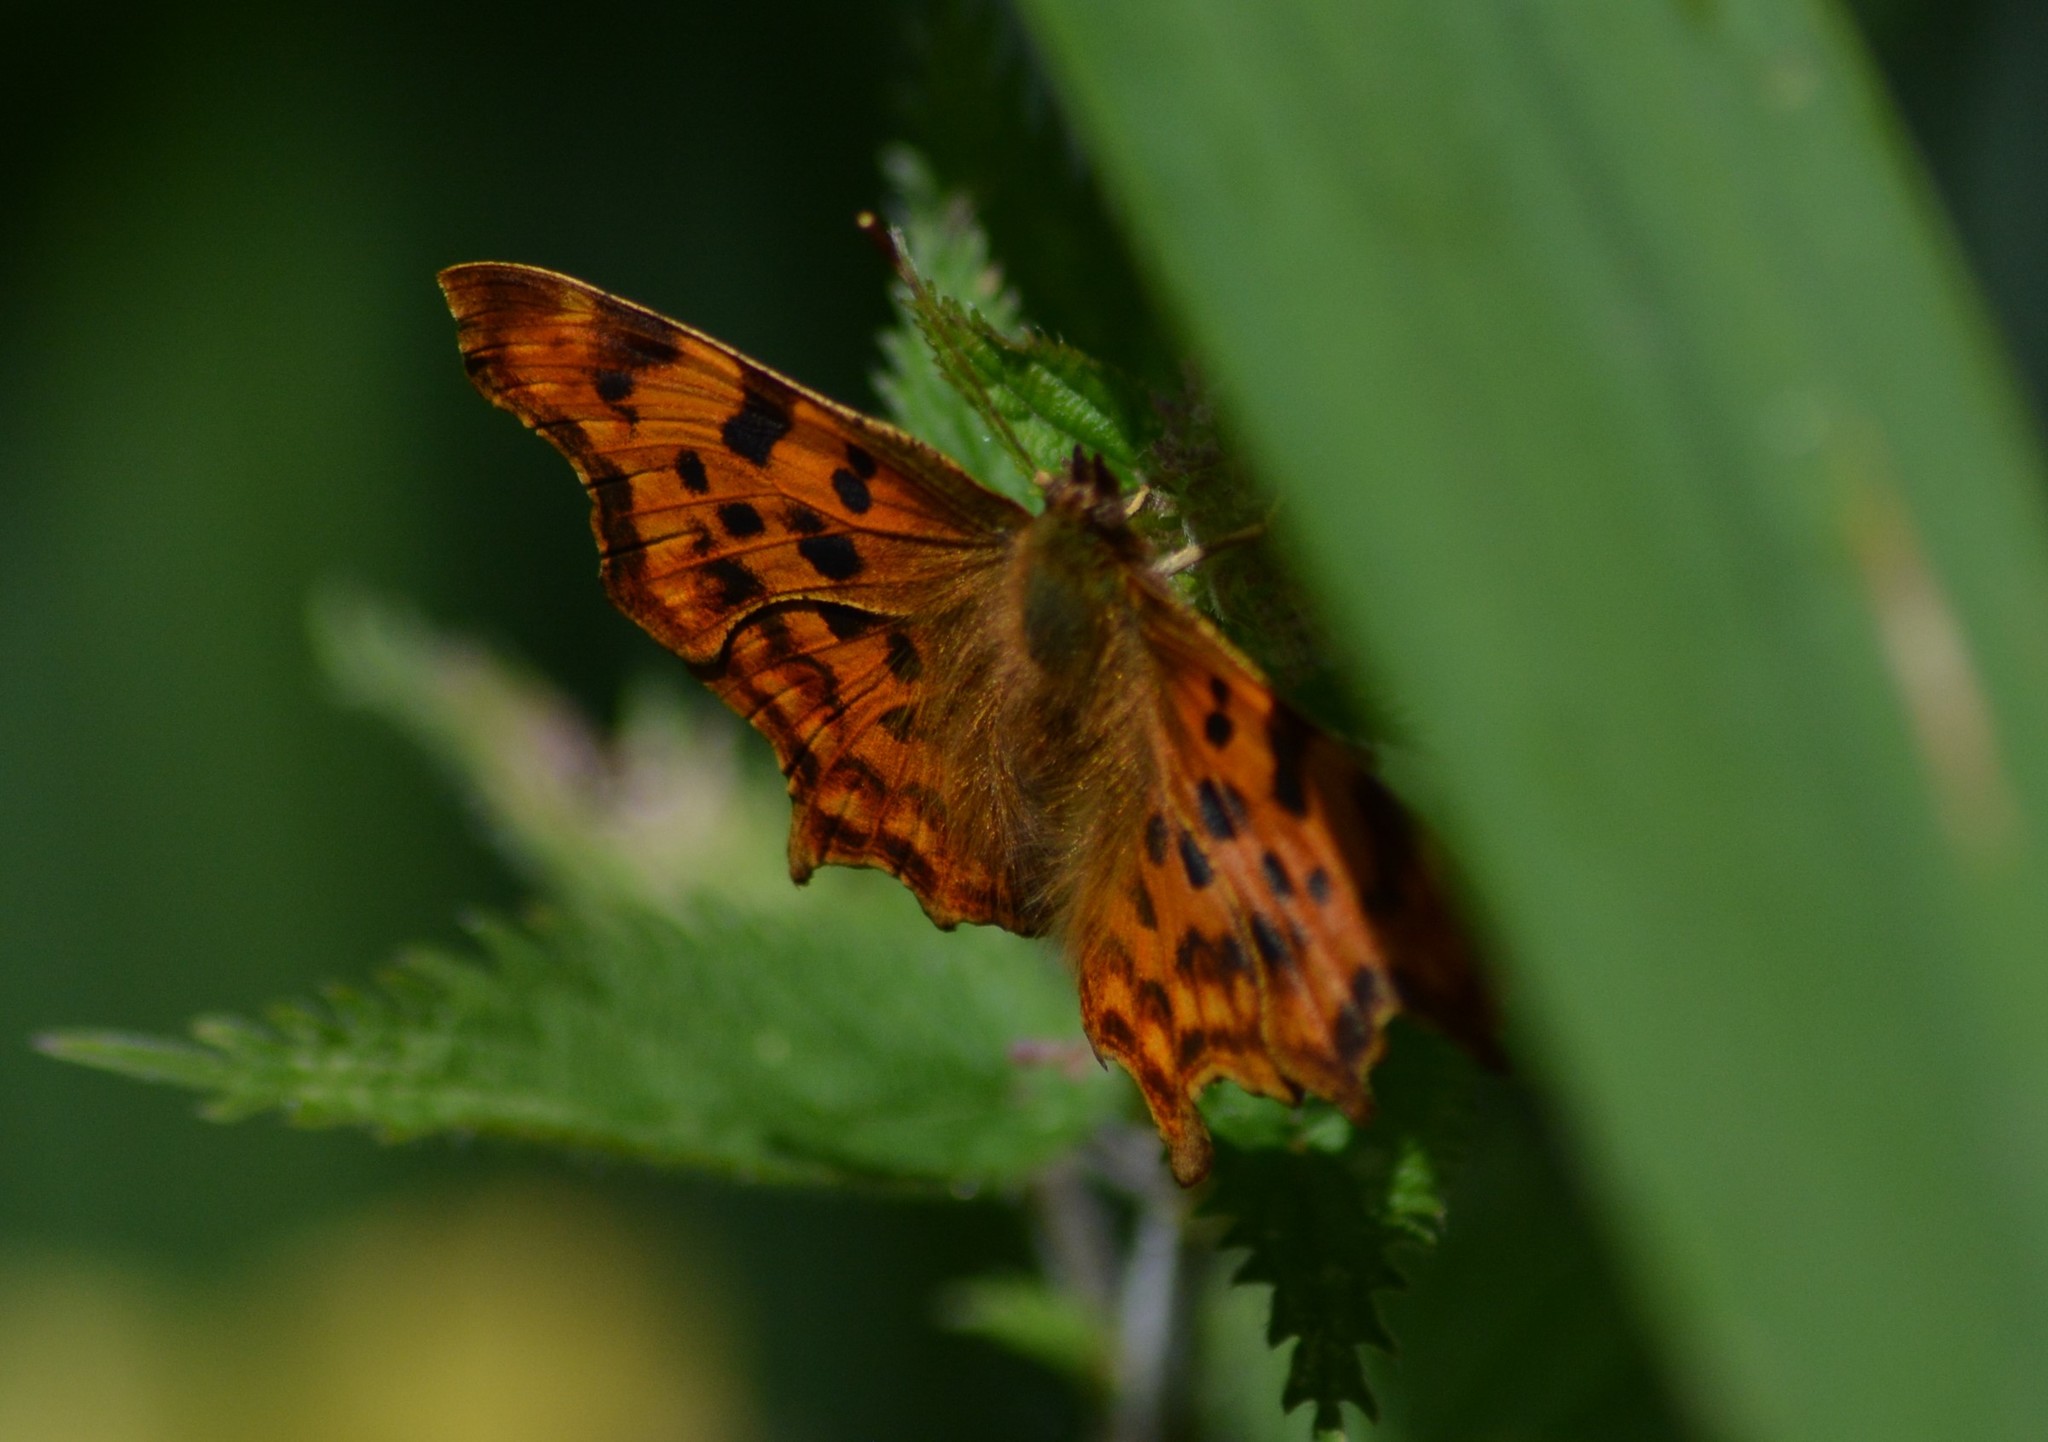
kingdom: Animalia
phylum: Arthropoda
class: Insecta
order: Lepidoptera
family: Nymphalidae
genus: Polygonia
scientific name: Polygonia c-album
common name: Comma
